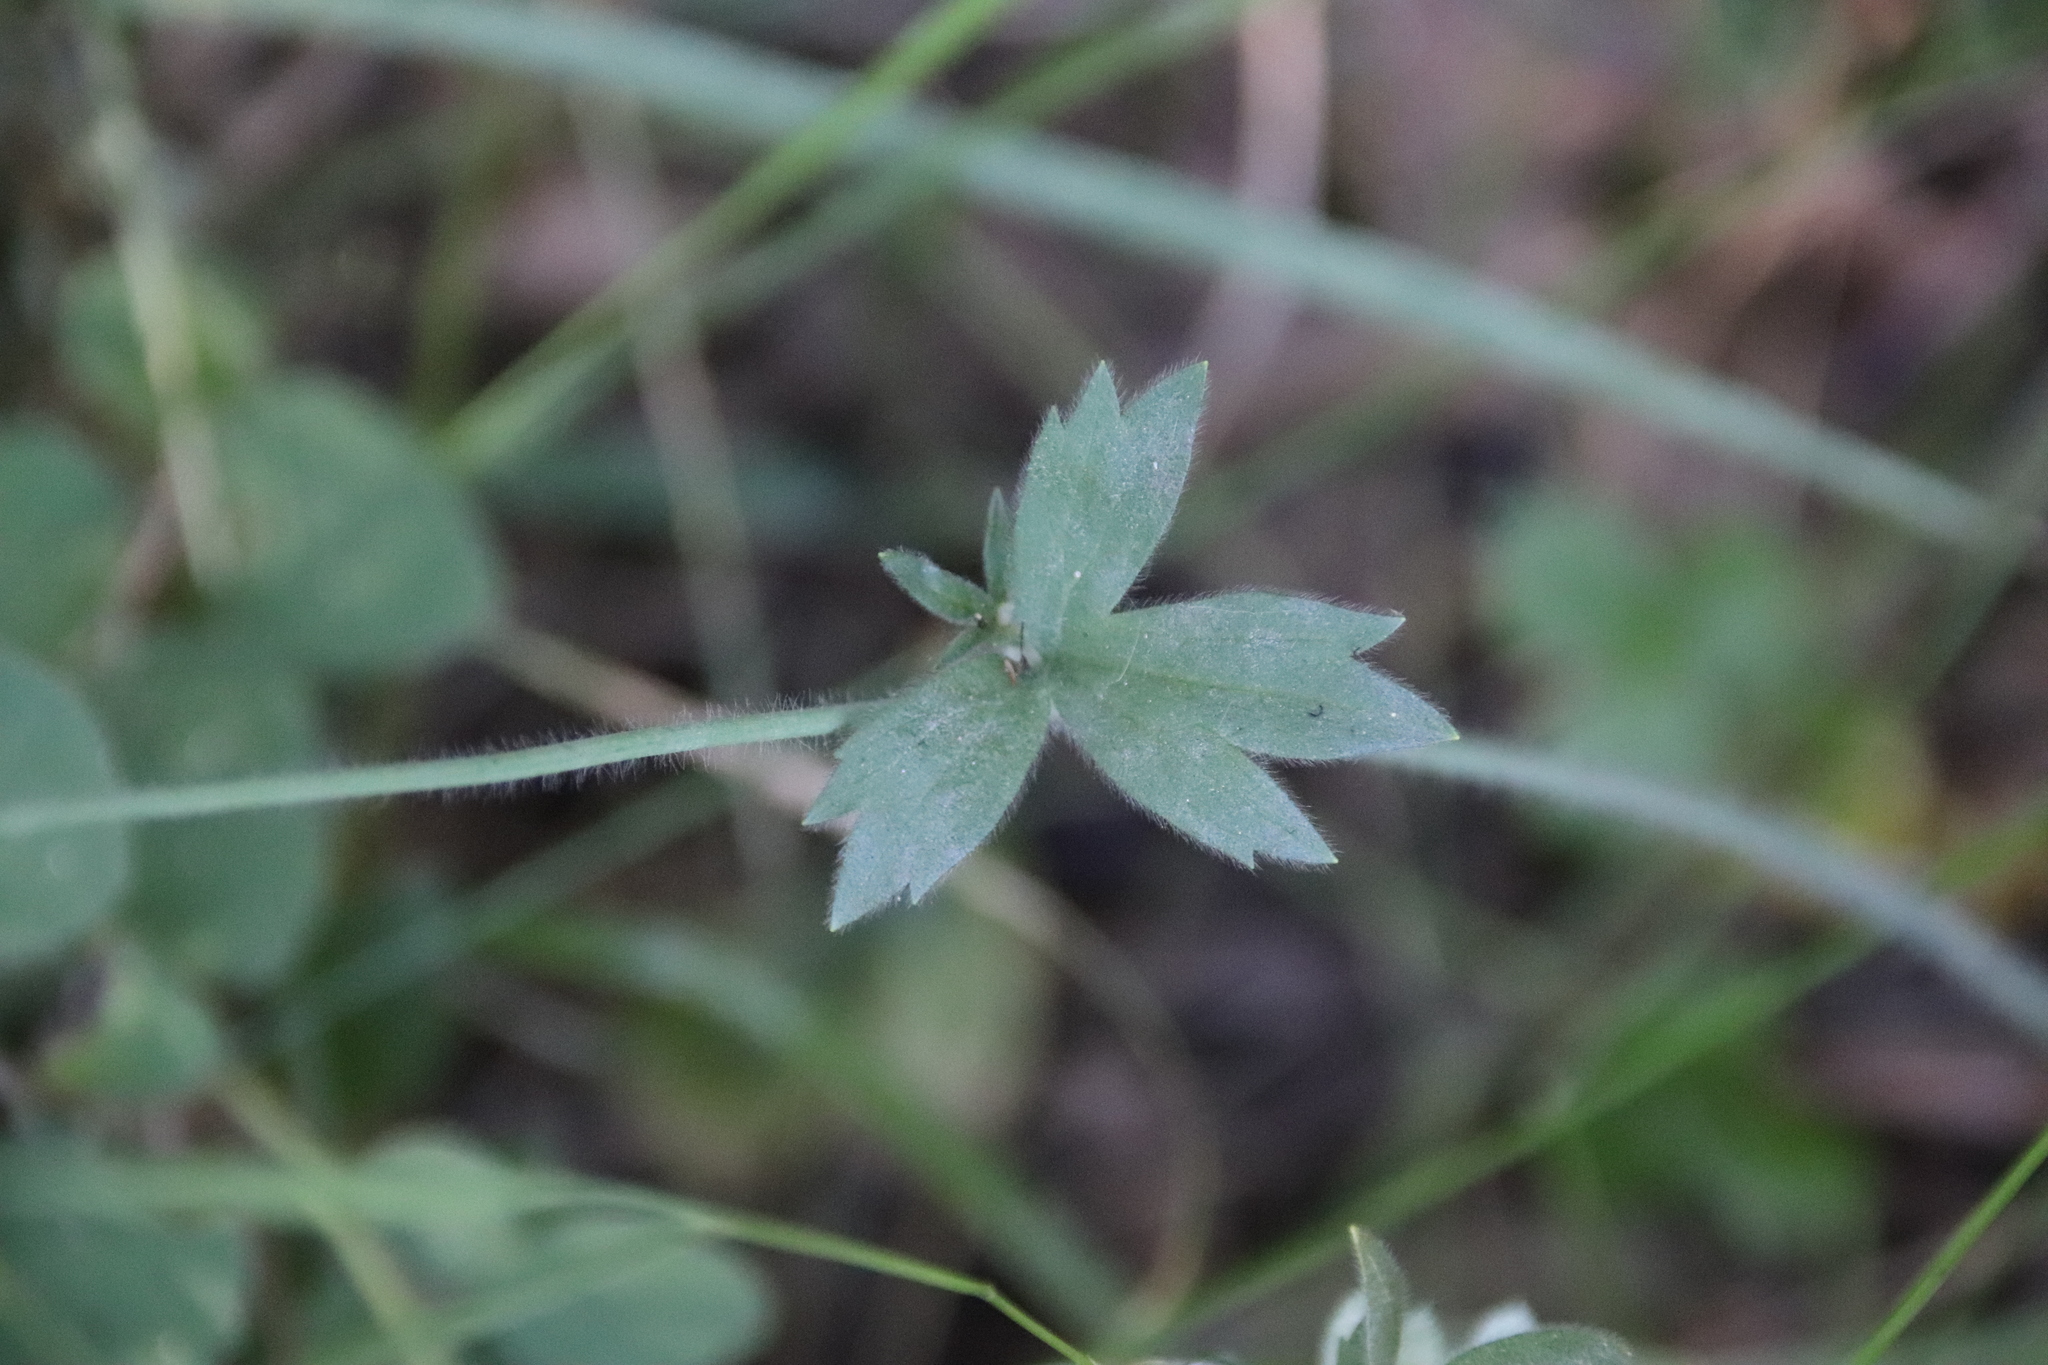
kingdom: Plantae
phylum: Tracheophyta
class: Magnoliopsida
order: Ranunculales
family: Ranunculaceae
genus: Ranunculus
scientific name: Ranunculus californicus
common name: California buttercup
